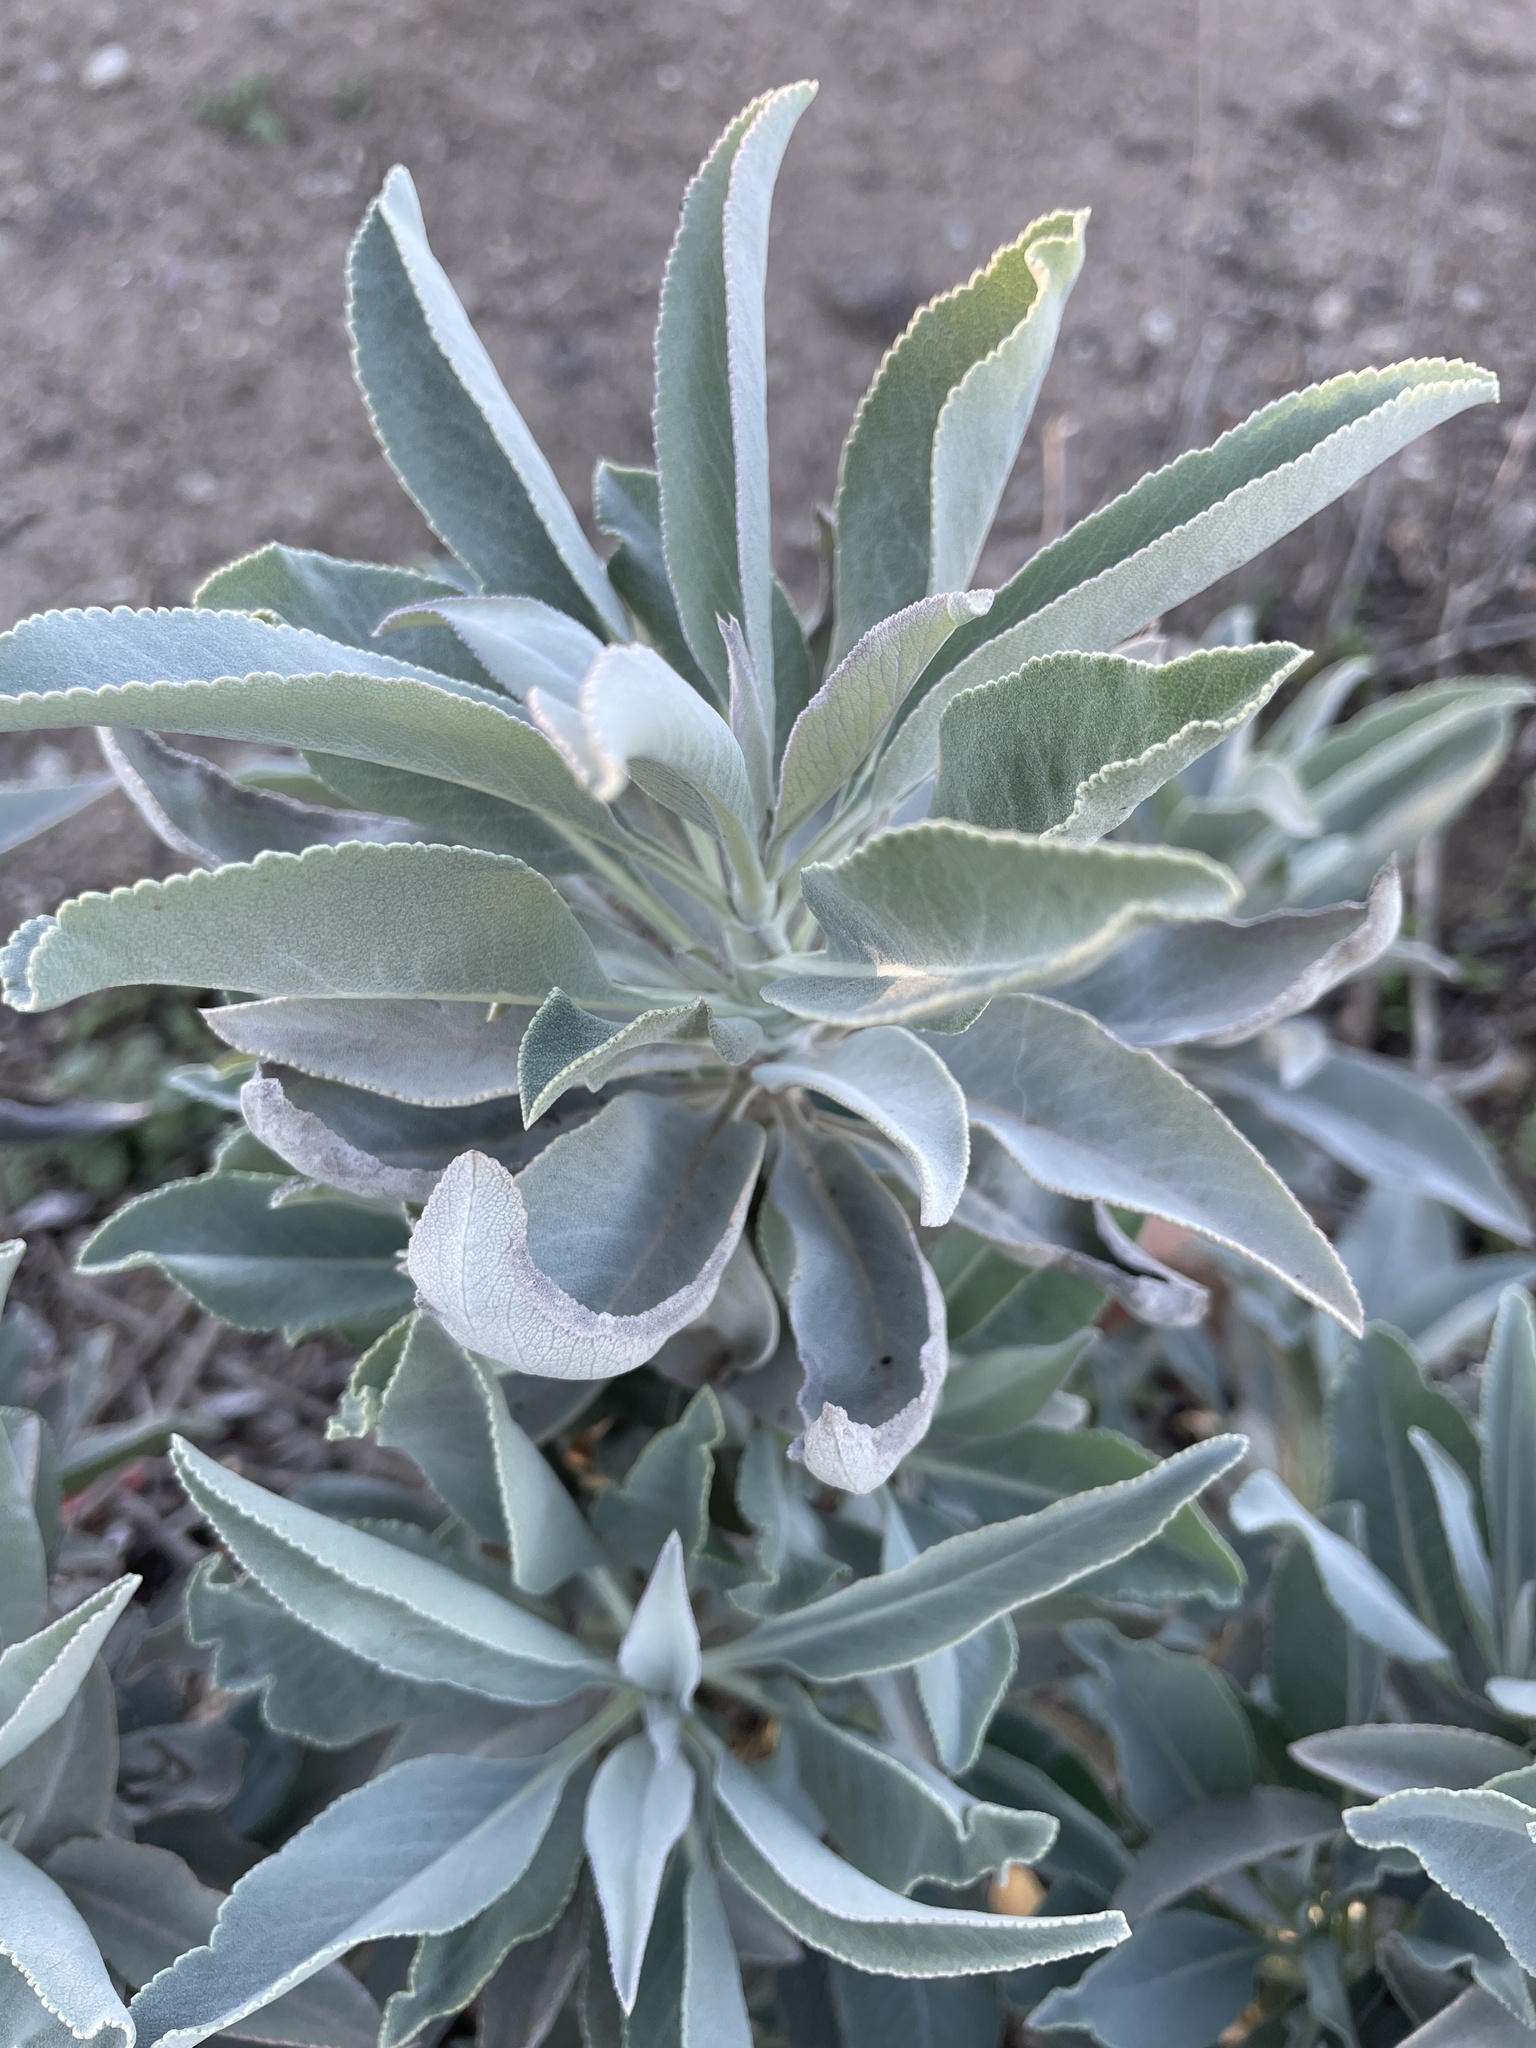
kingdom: Plantae
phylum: Tracheophyta
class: Magnoliopsida
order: Lamiales
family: Lamiaceae
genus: Salvia
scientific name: Salvia apiana
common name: White sage
